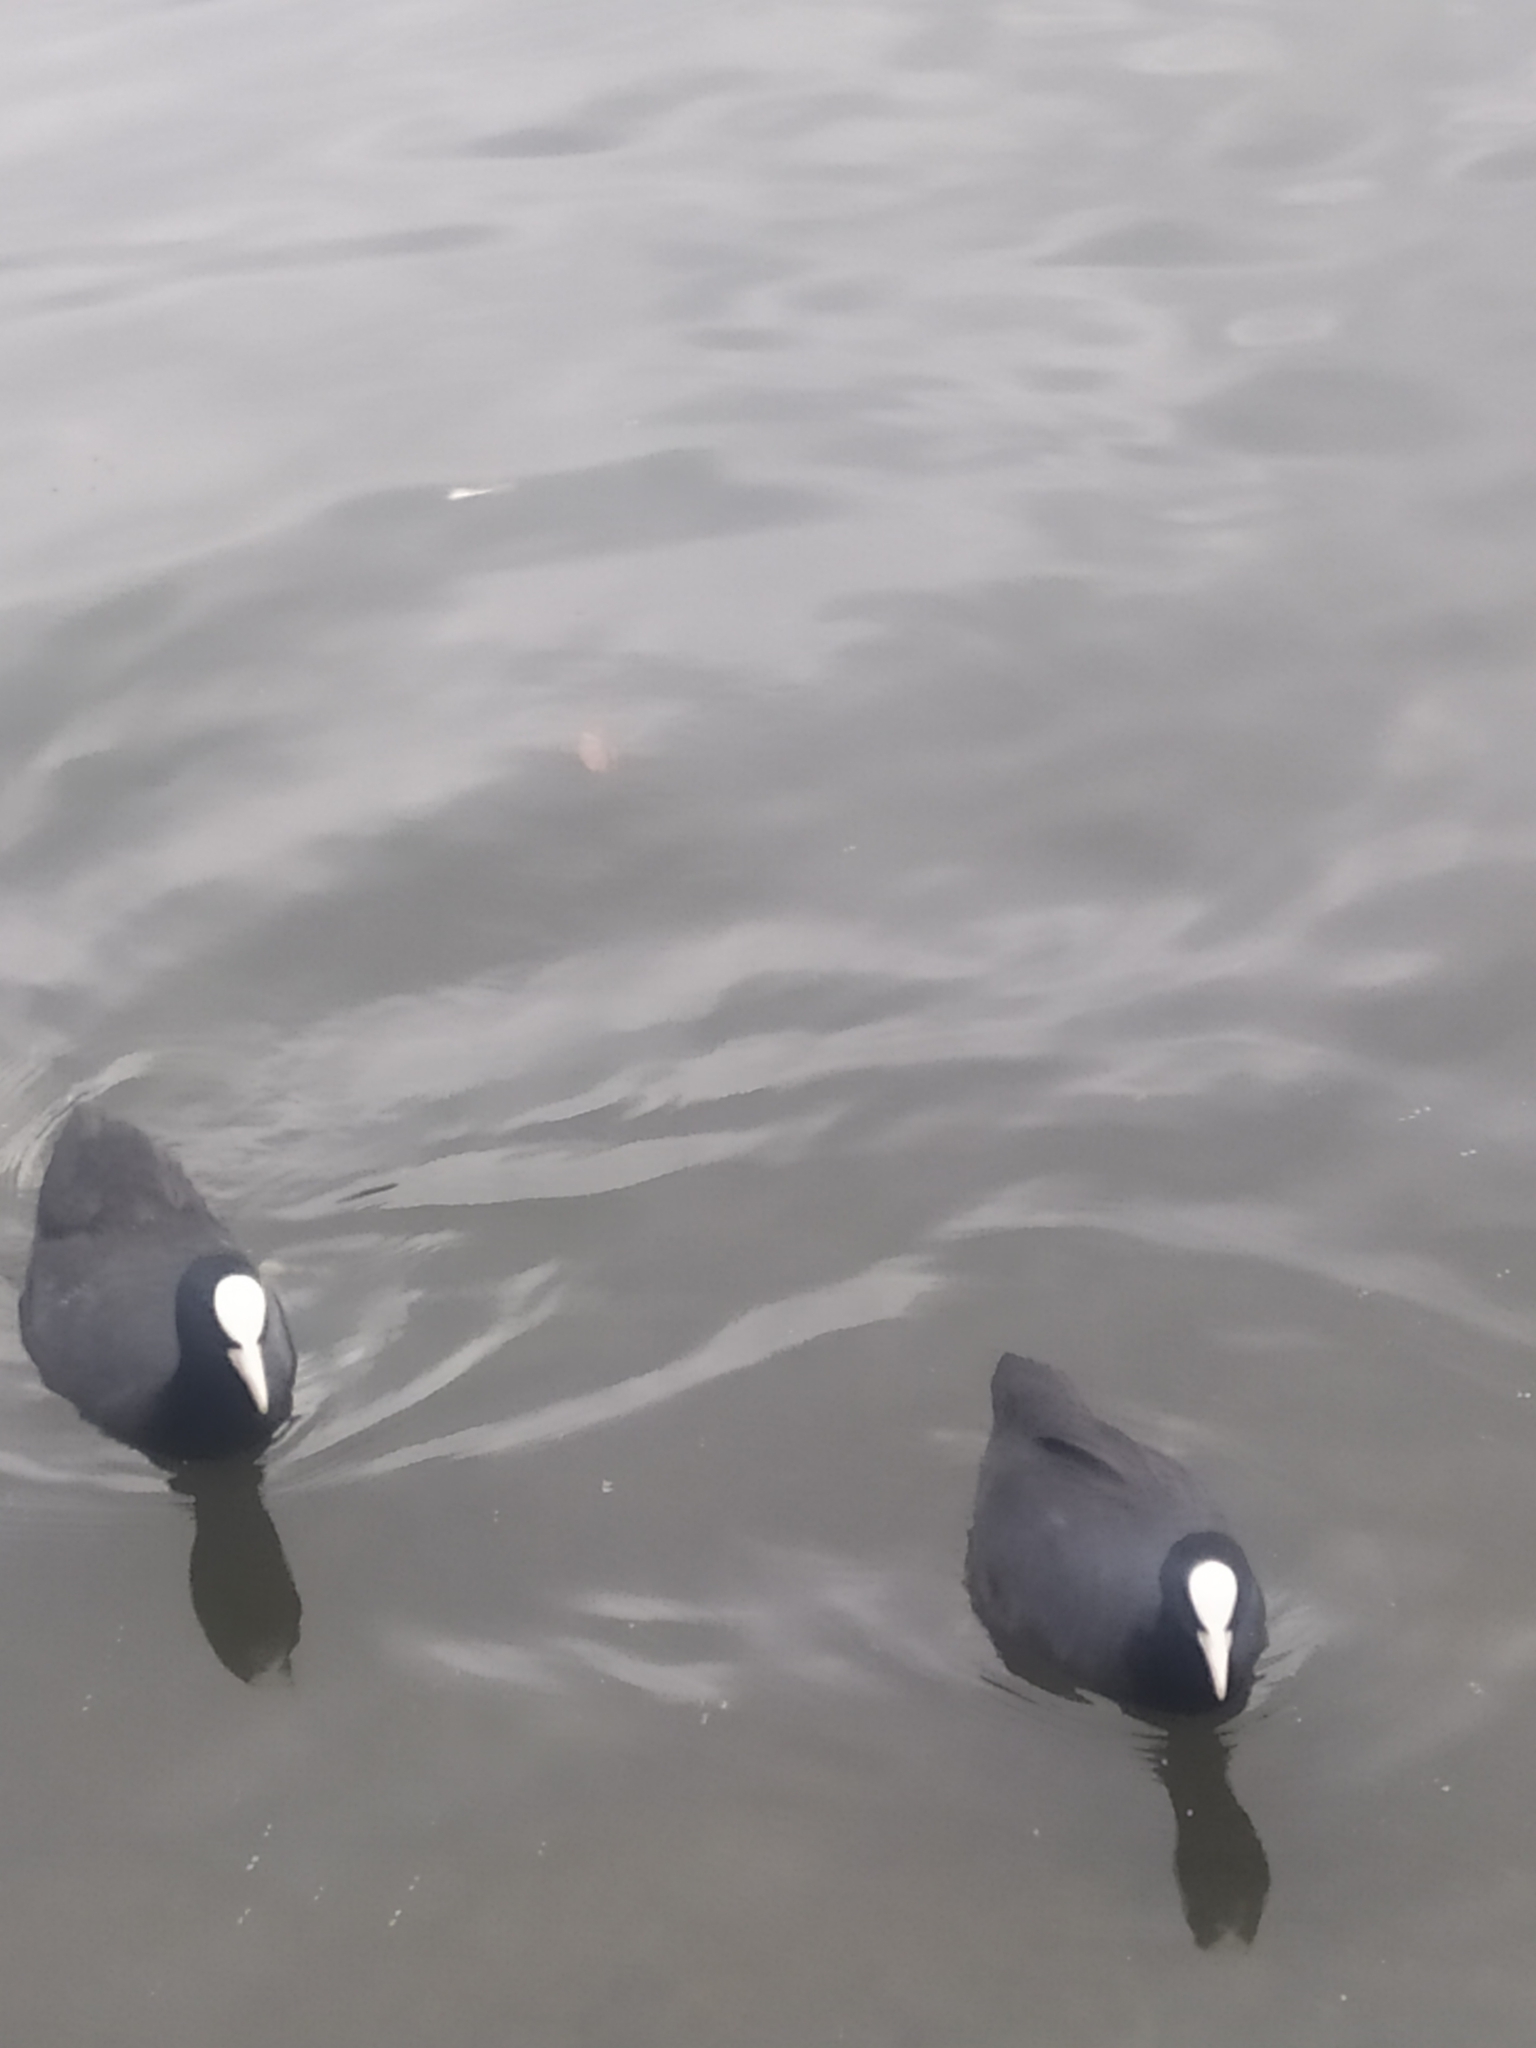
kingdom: Animalia
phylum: Chordata
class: Aves
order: Gruiformes
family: Rallidae
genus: Fulica
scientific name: Fulica atra
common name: Eurasian coot
